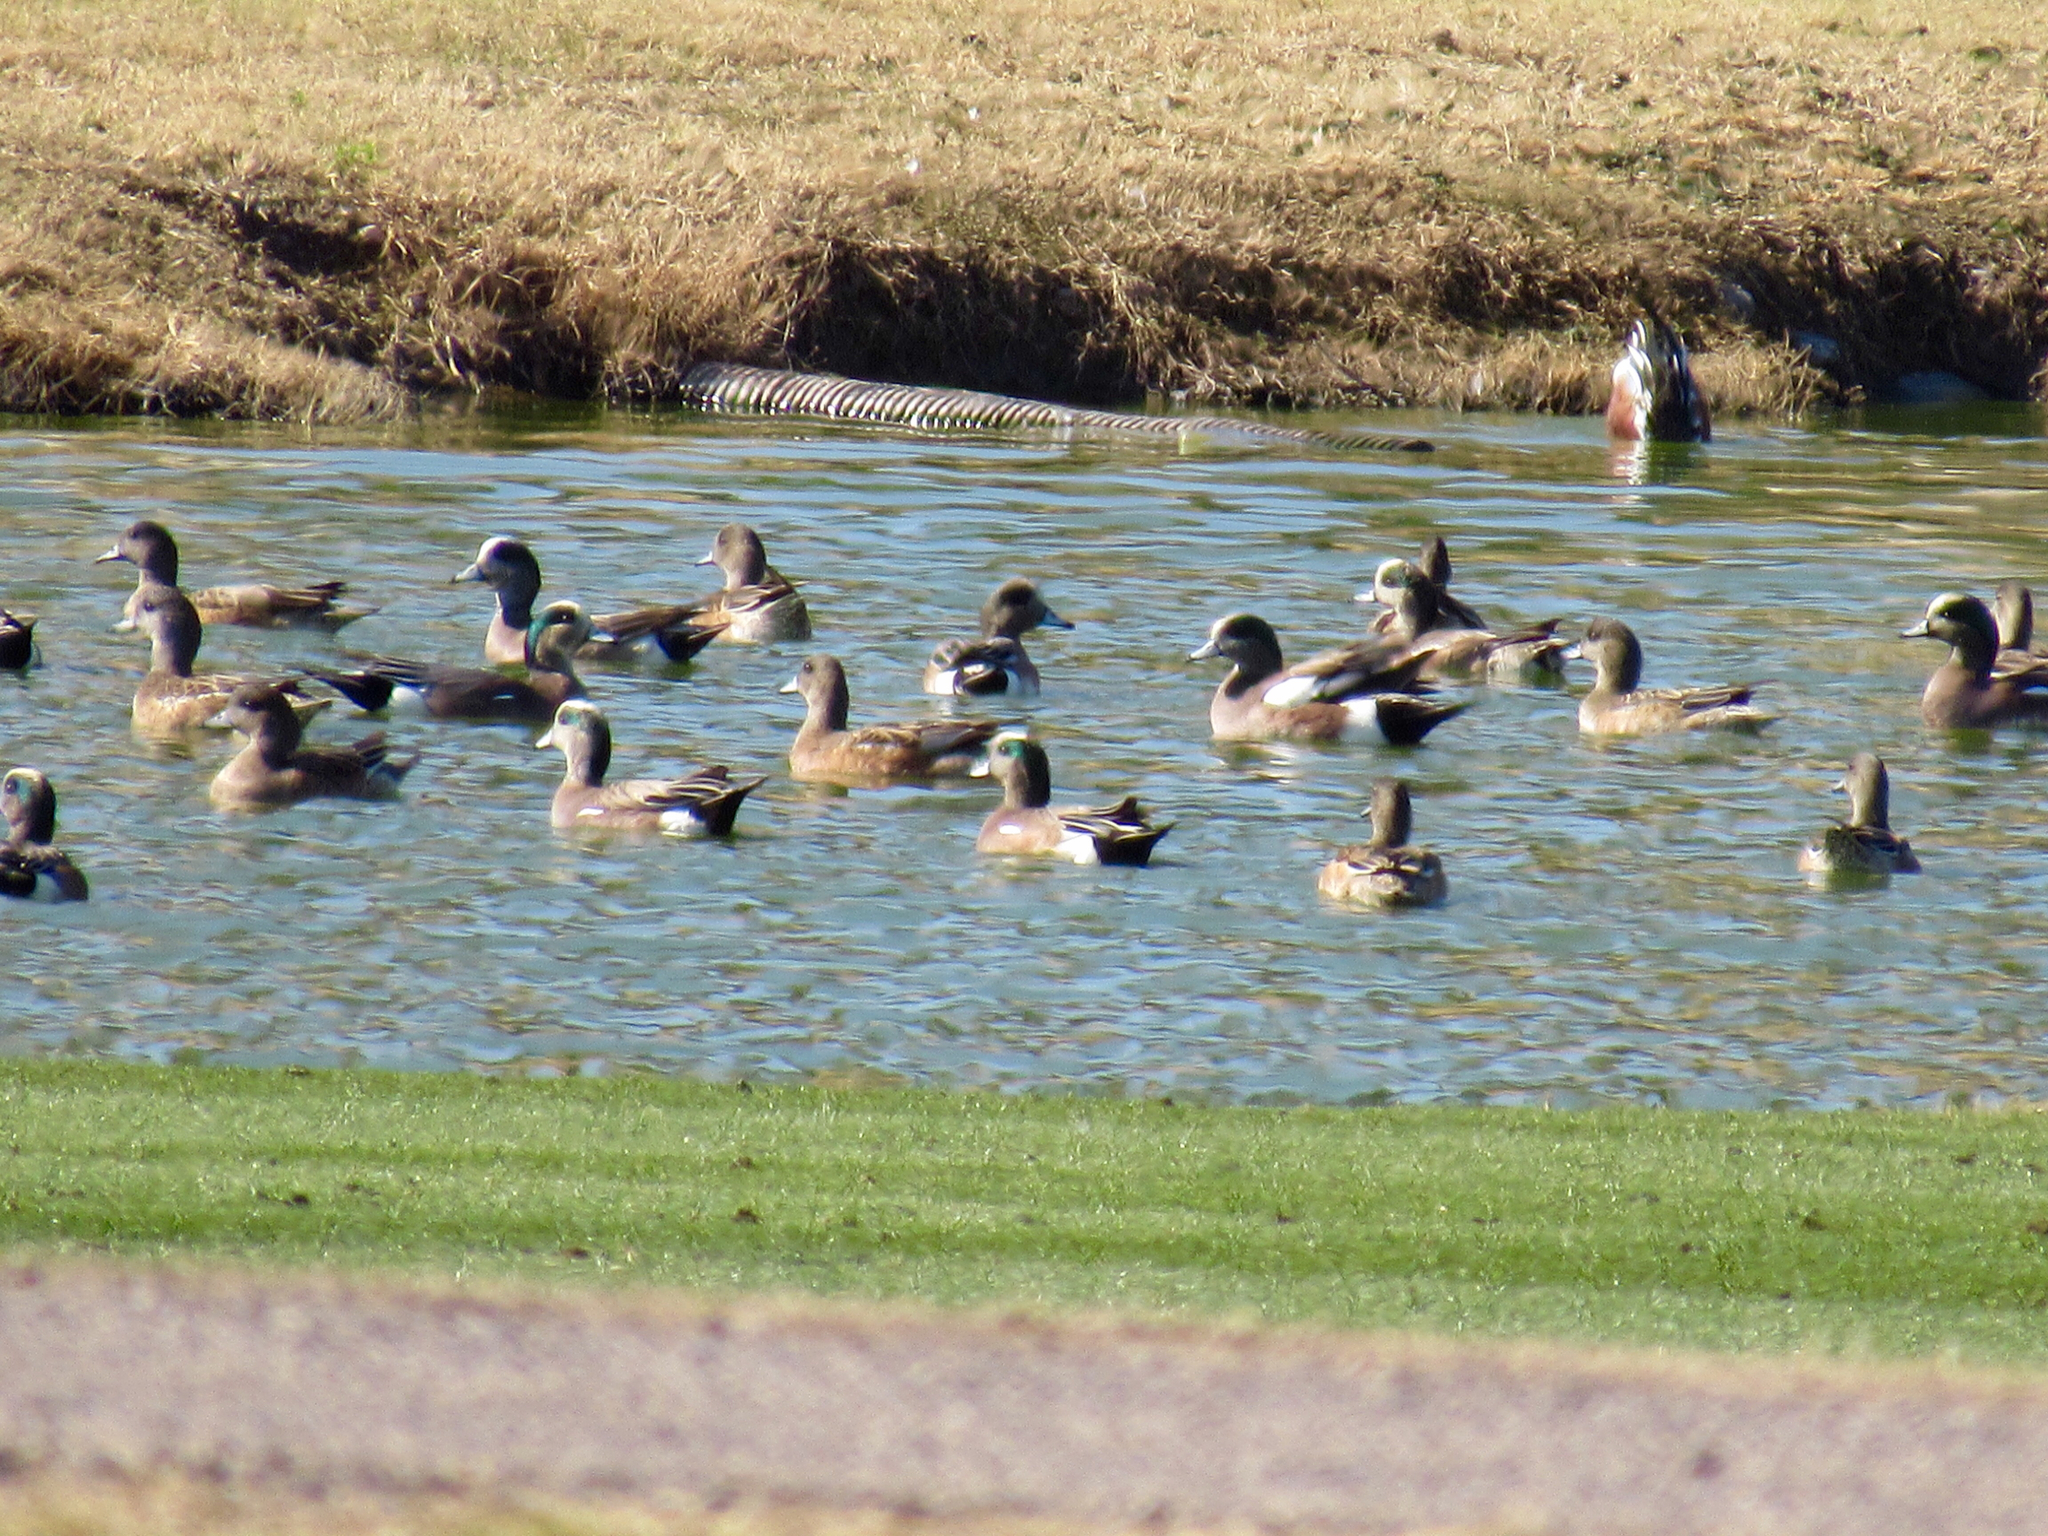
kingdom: Animalia
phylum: Chordata
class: Aves
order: Anseriformes
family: Anatidae
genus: Mareca
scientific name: Mareca americana
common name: American wigeon
